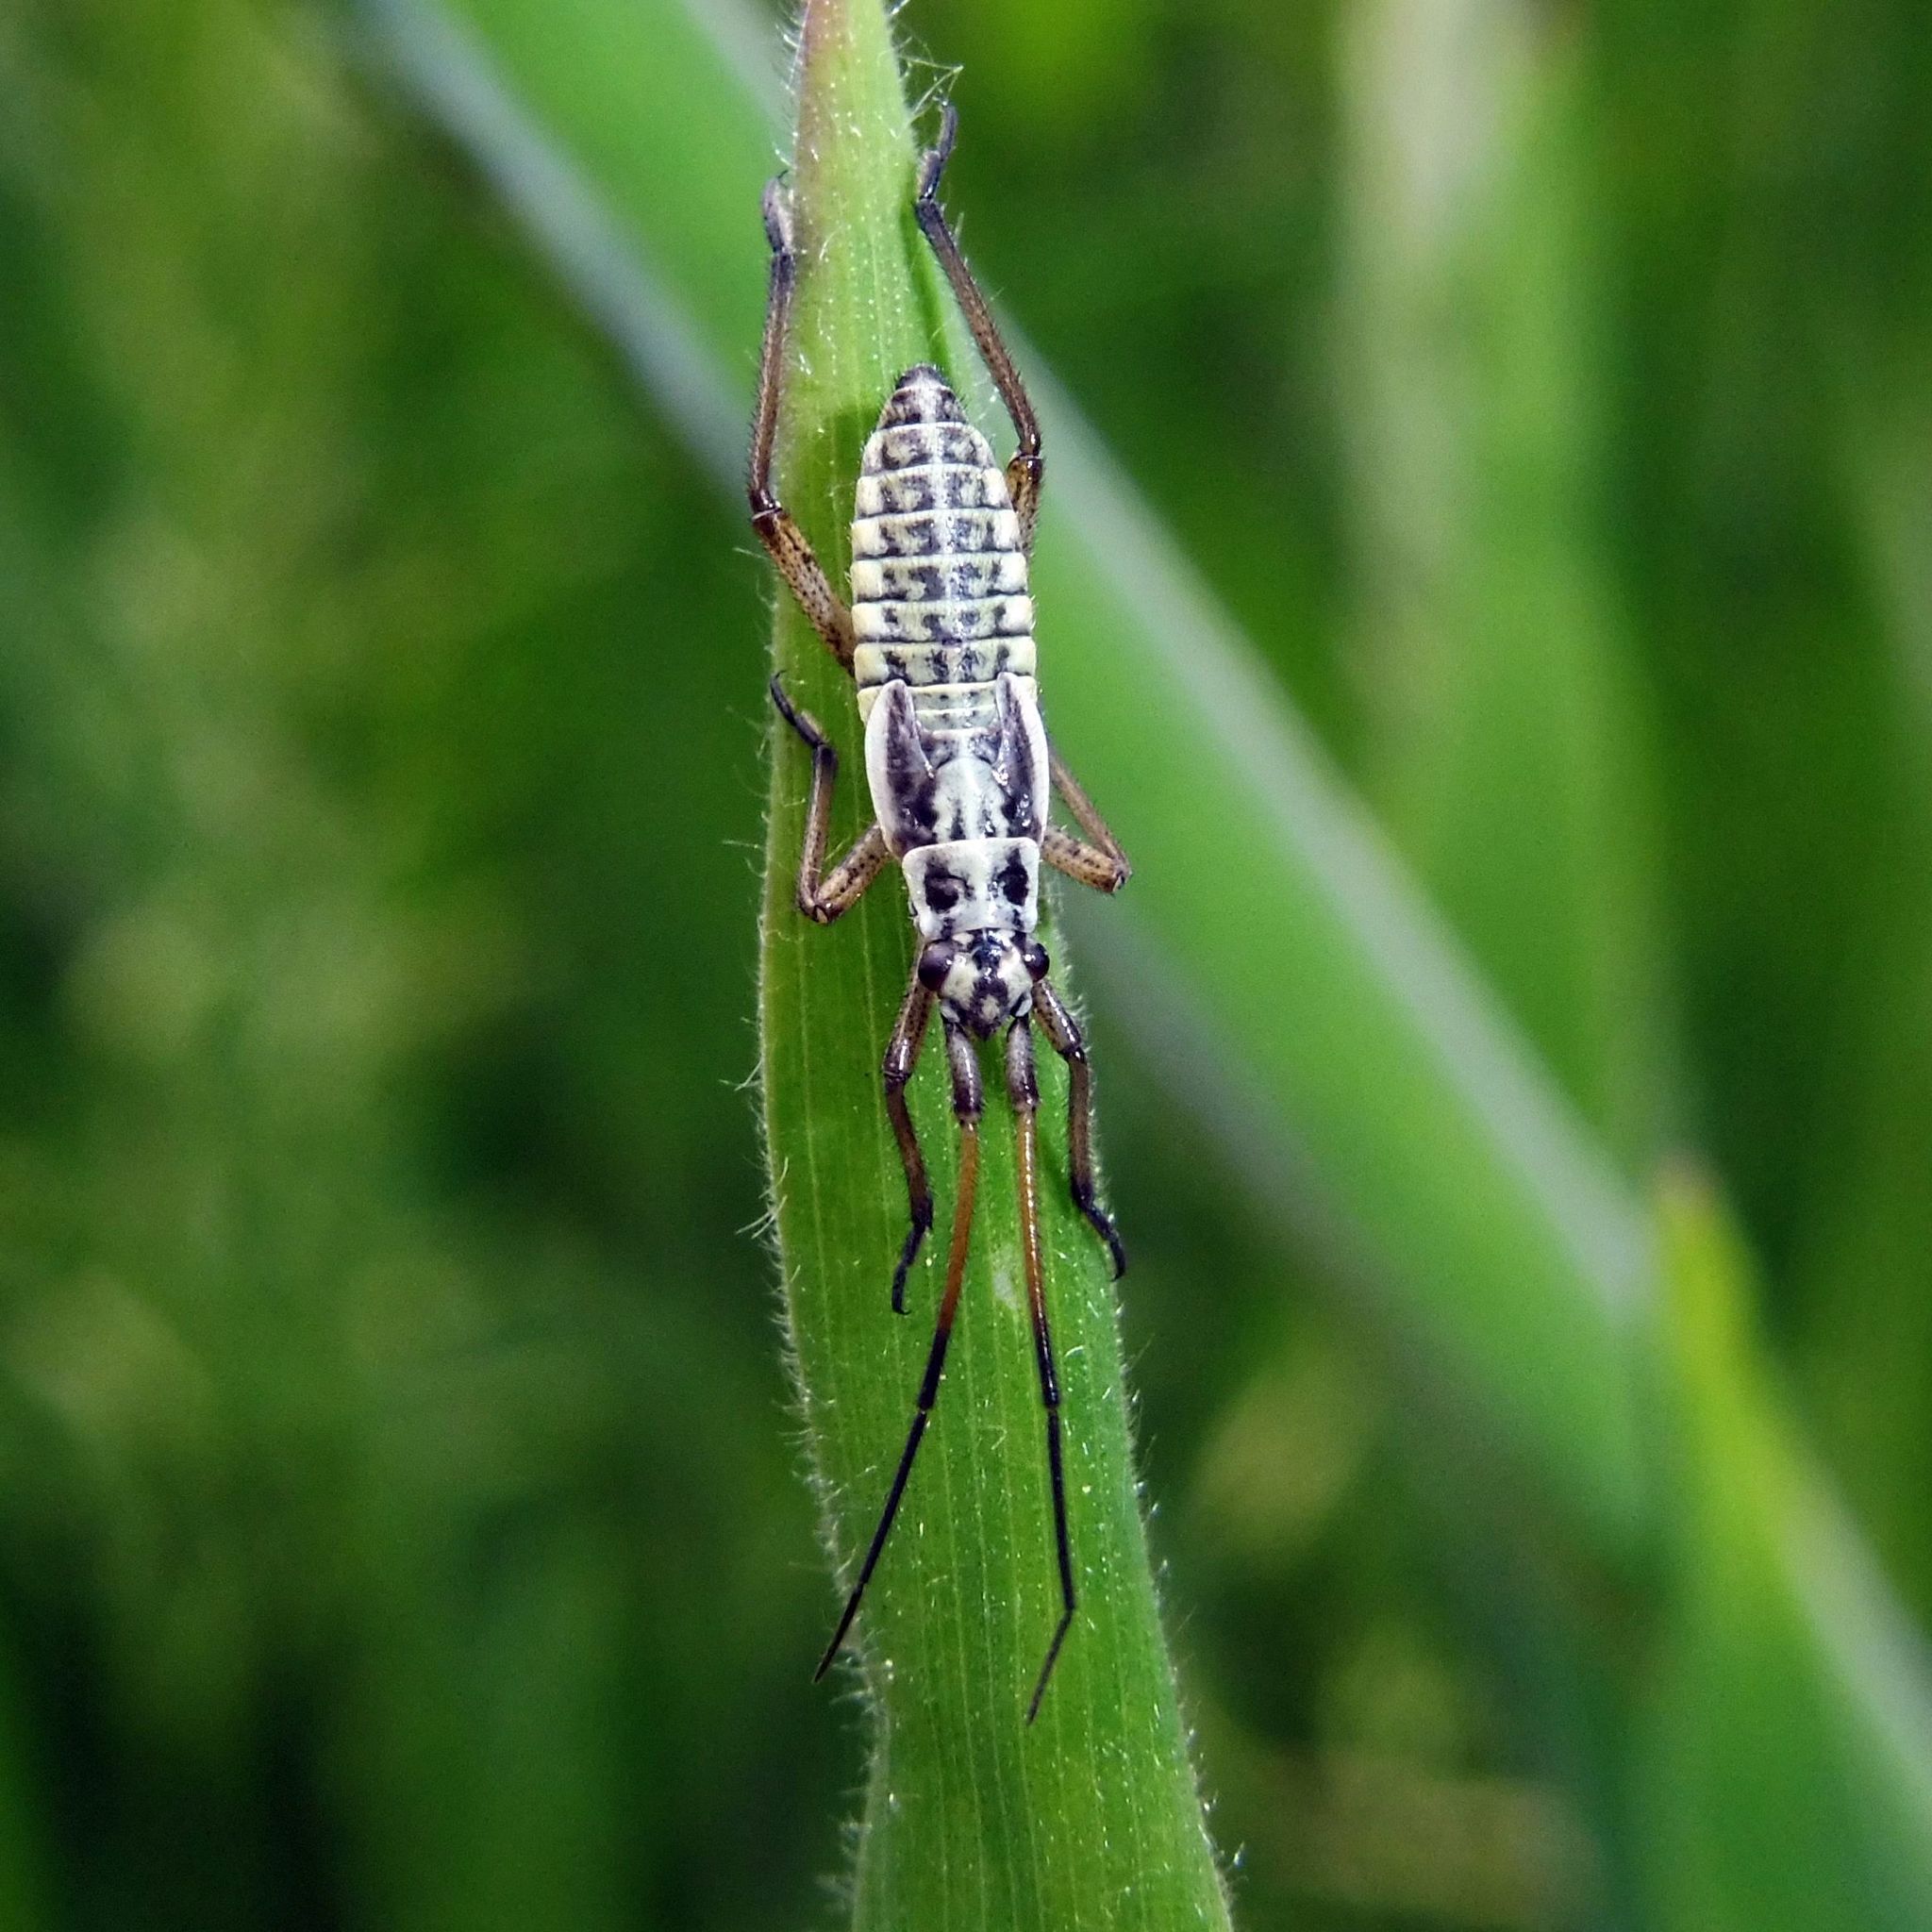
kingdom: Animalia
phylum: Arthropoda
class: Insecta
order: Hemiptera
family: Miridae
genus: Leptopterna
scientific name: Leptopterna dolabrata
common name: Meadow plant bug
